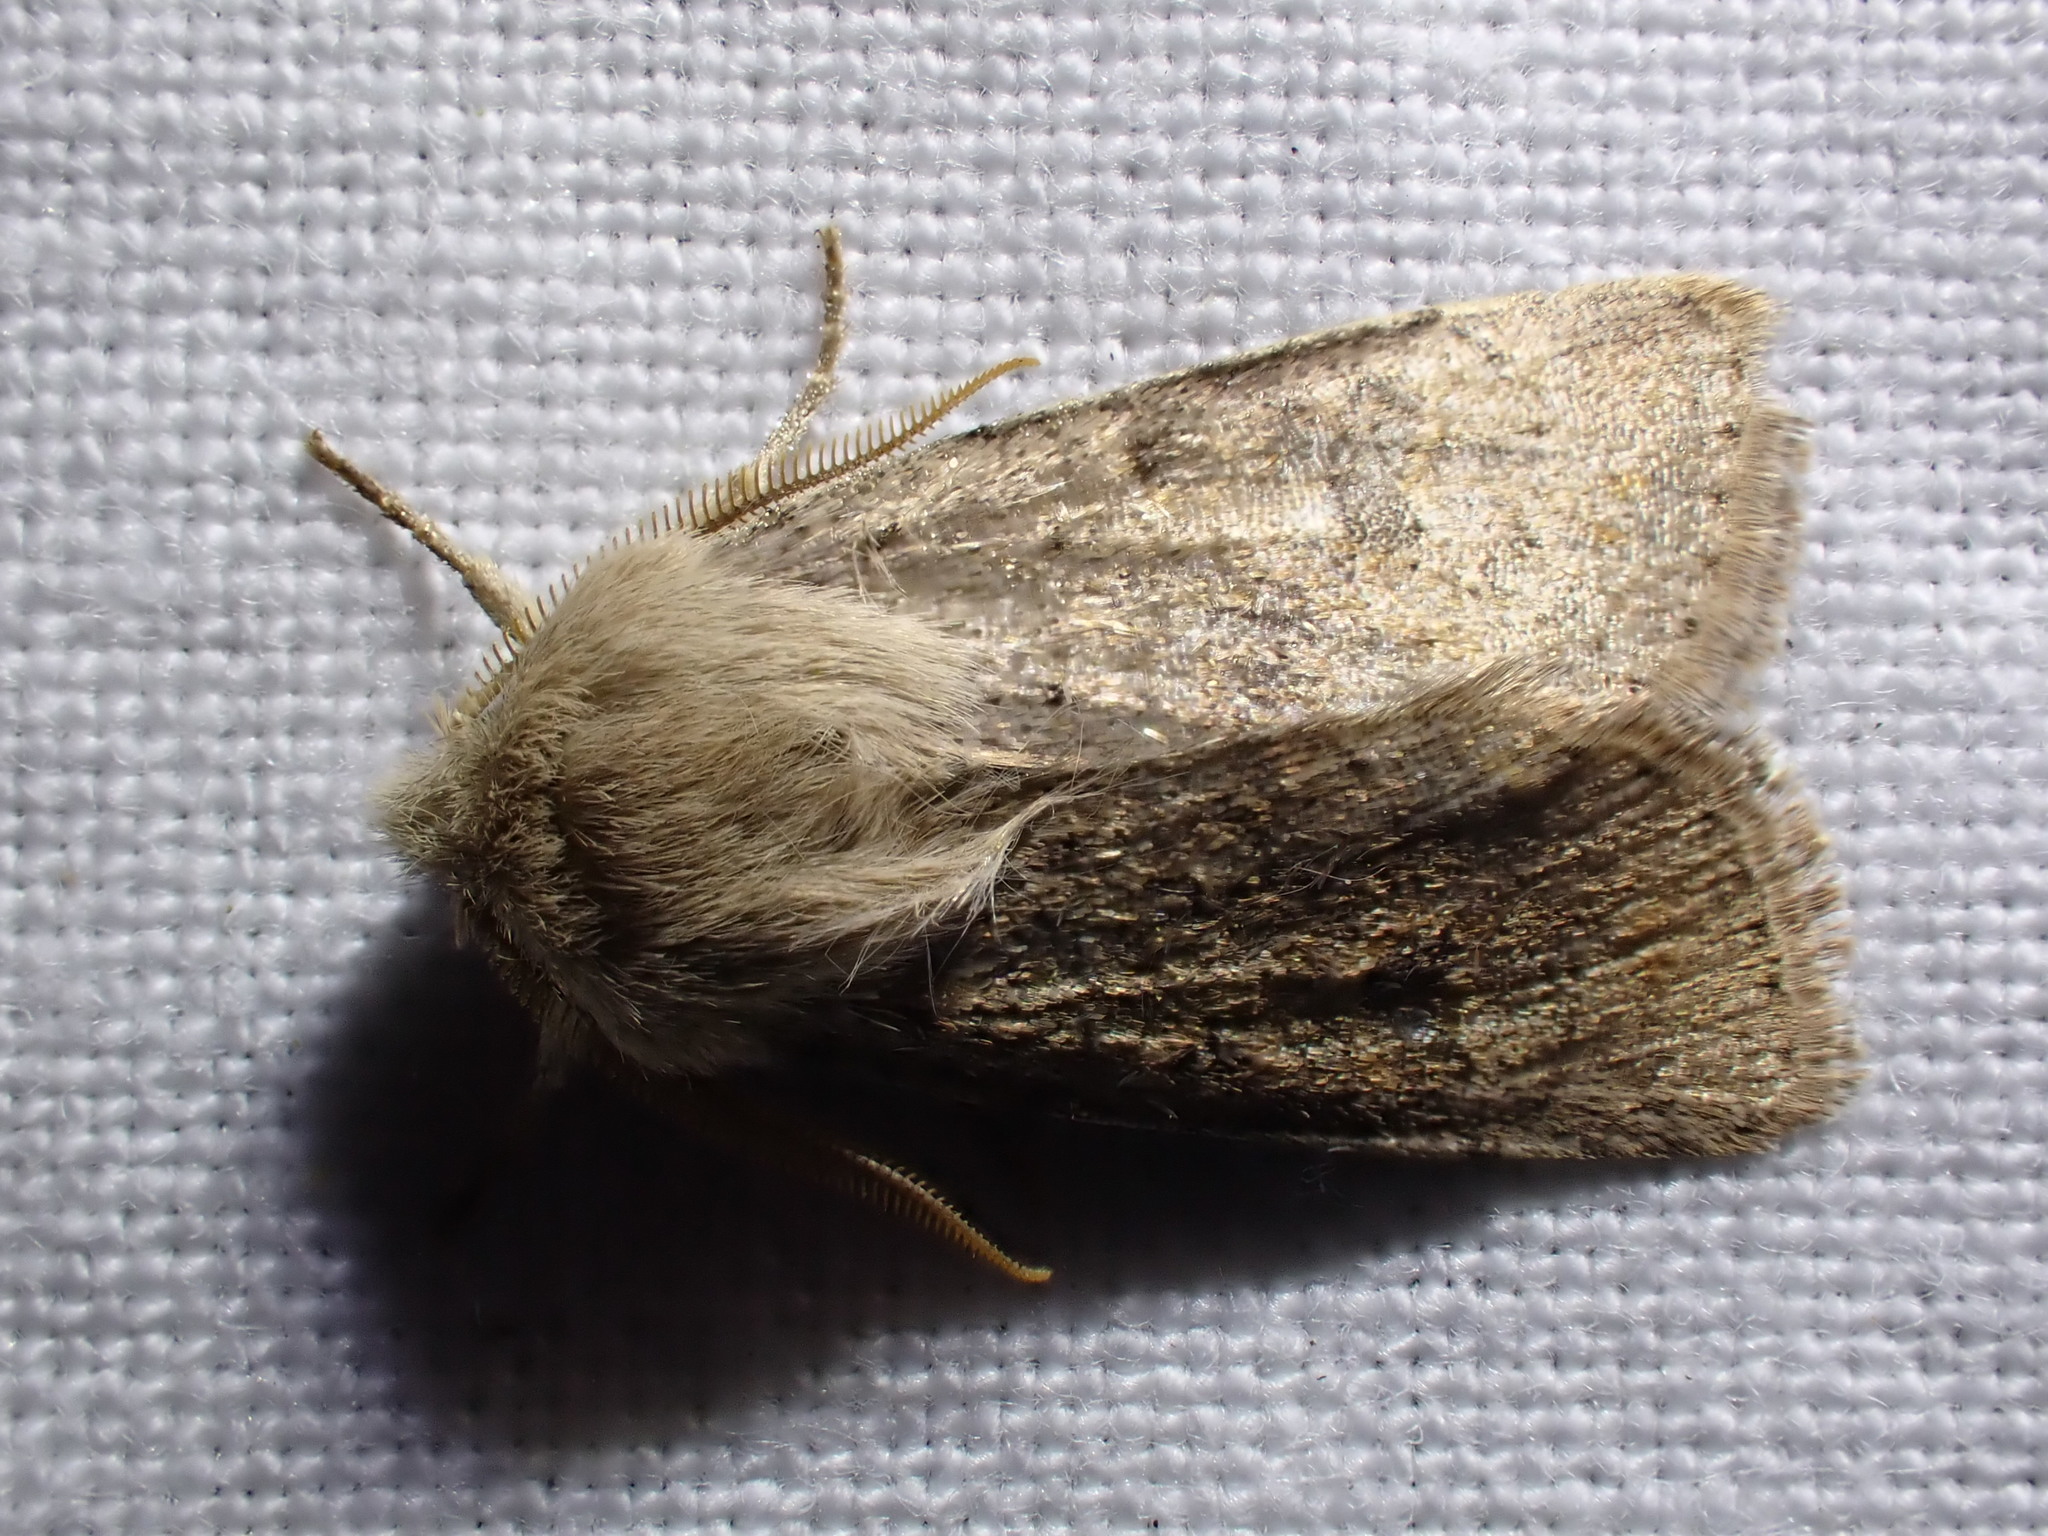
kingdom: Animalia
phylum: Arthropoda
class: Insecta
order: Lepidoptera
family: Noctuidae
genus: Orthosia
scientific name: Orthosia cruda
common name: Small quaker
